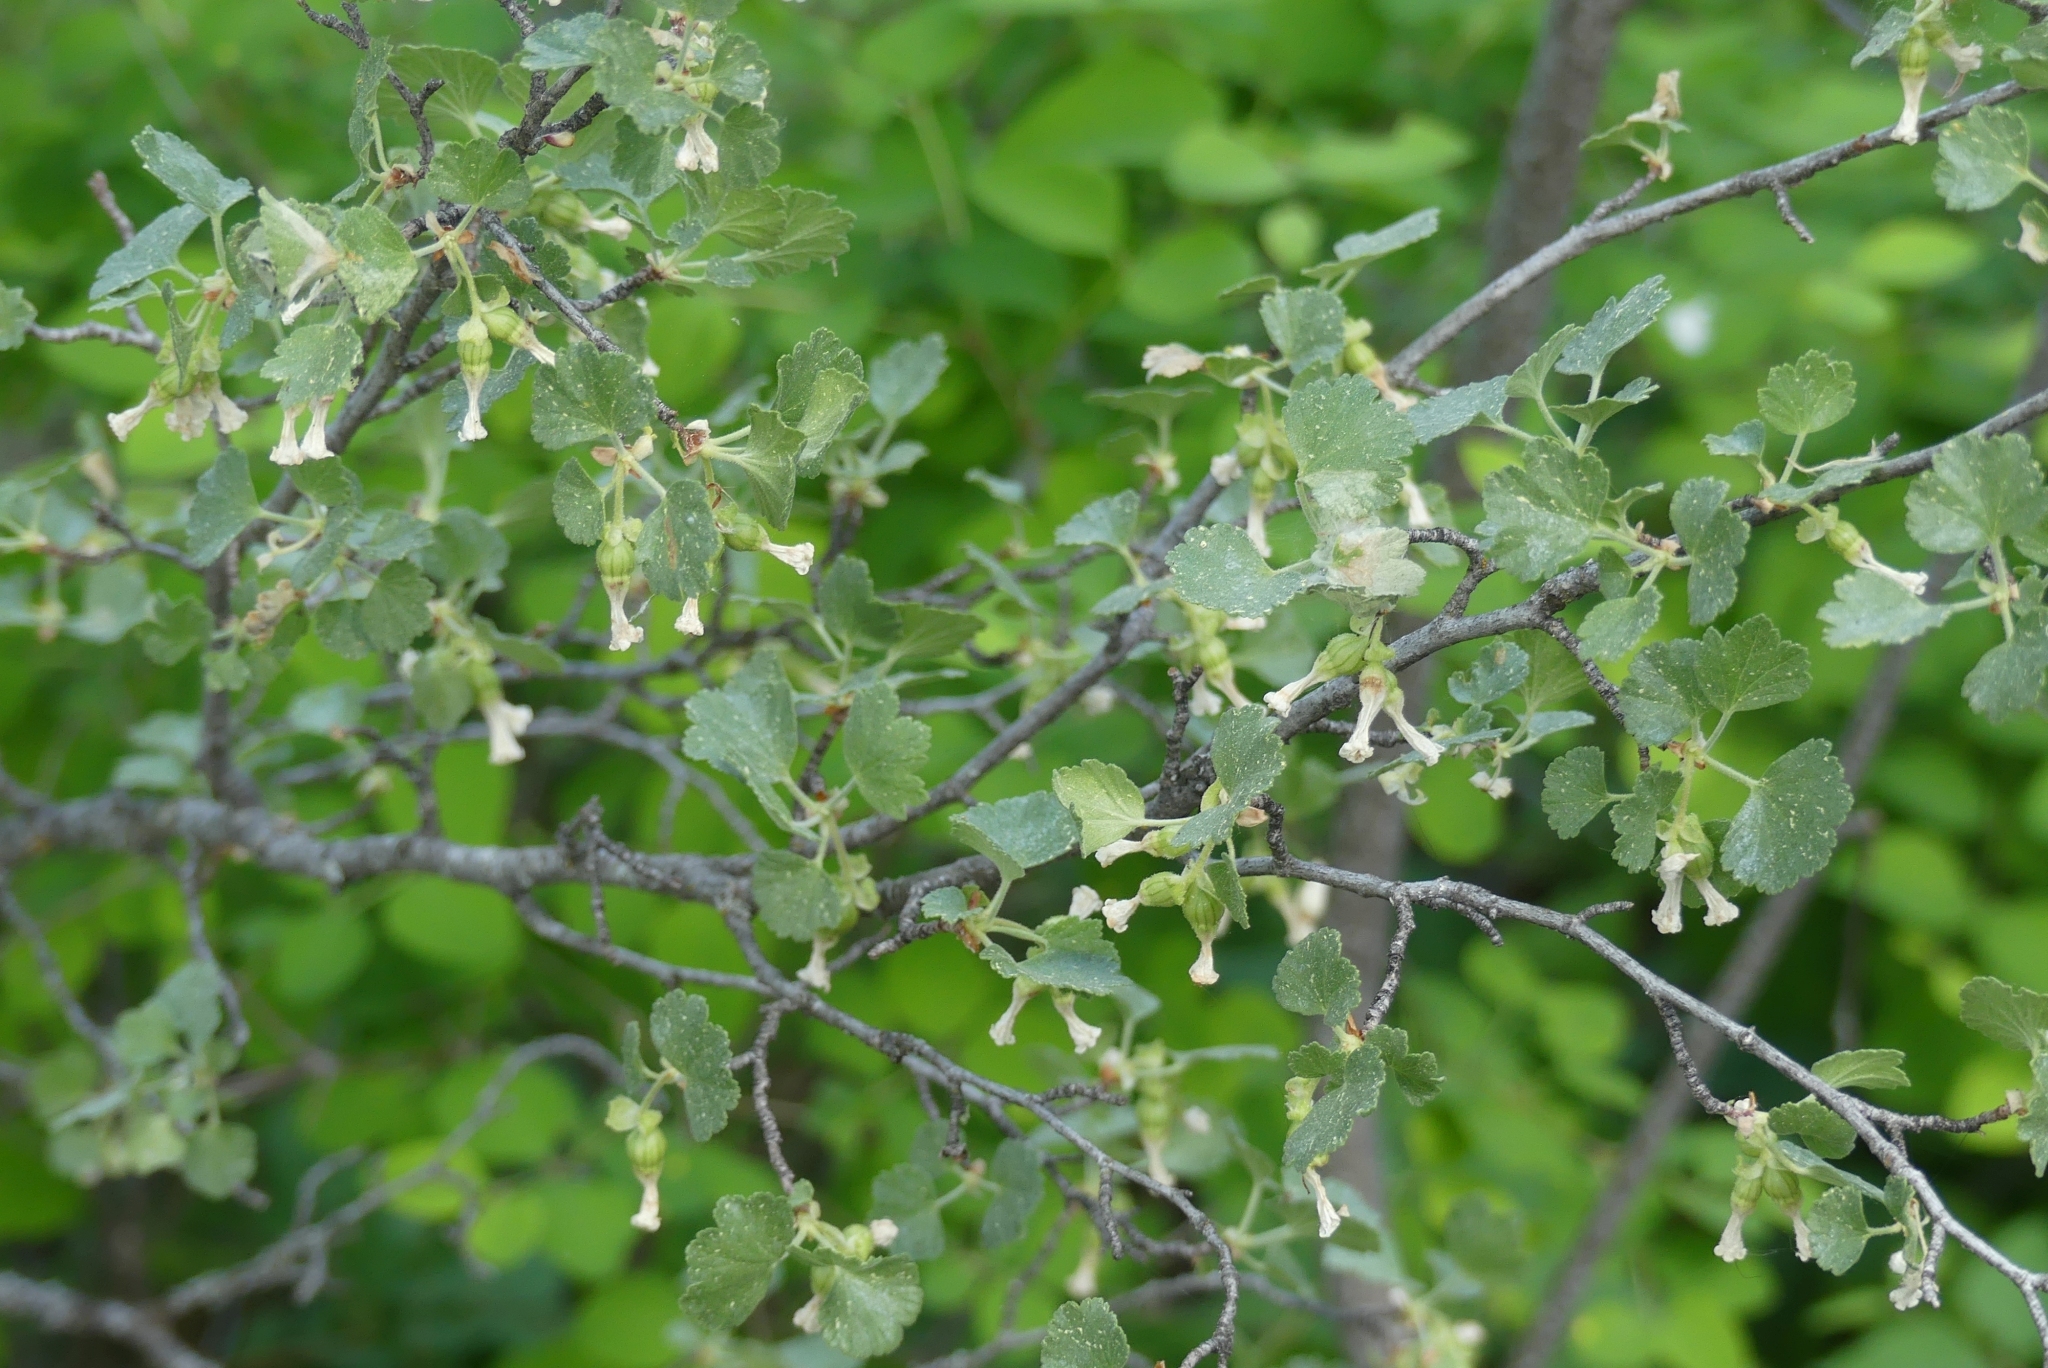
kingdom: Plantae
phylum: Tracheophyta
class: Magnoliopsida
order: Saxifragales
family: Grossulariaceae
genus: Ribes
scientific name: Ribes cereum
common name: Wax currant
